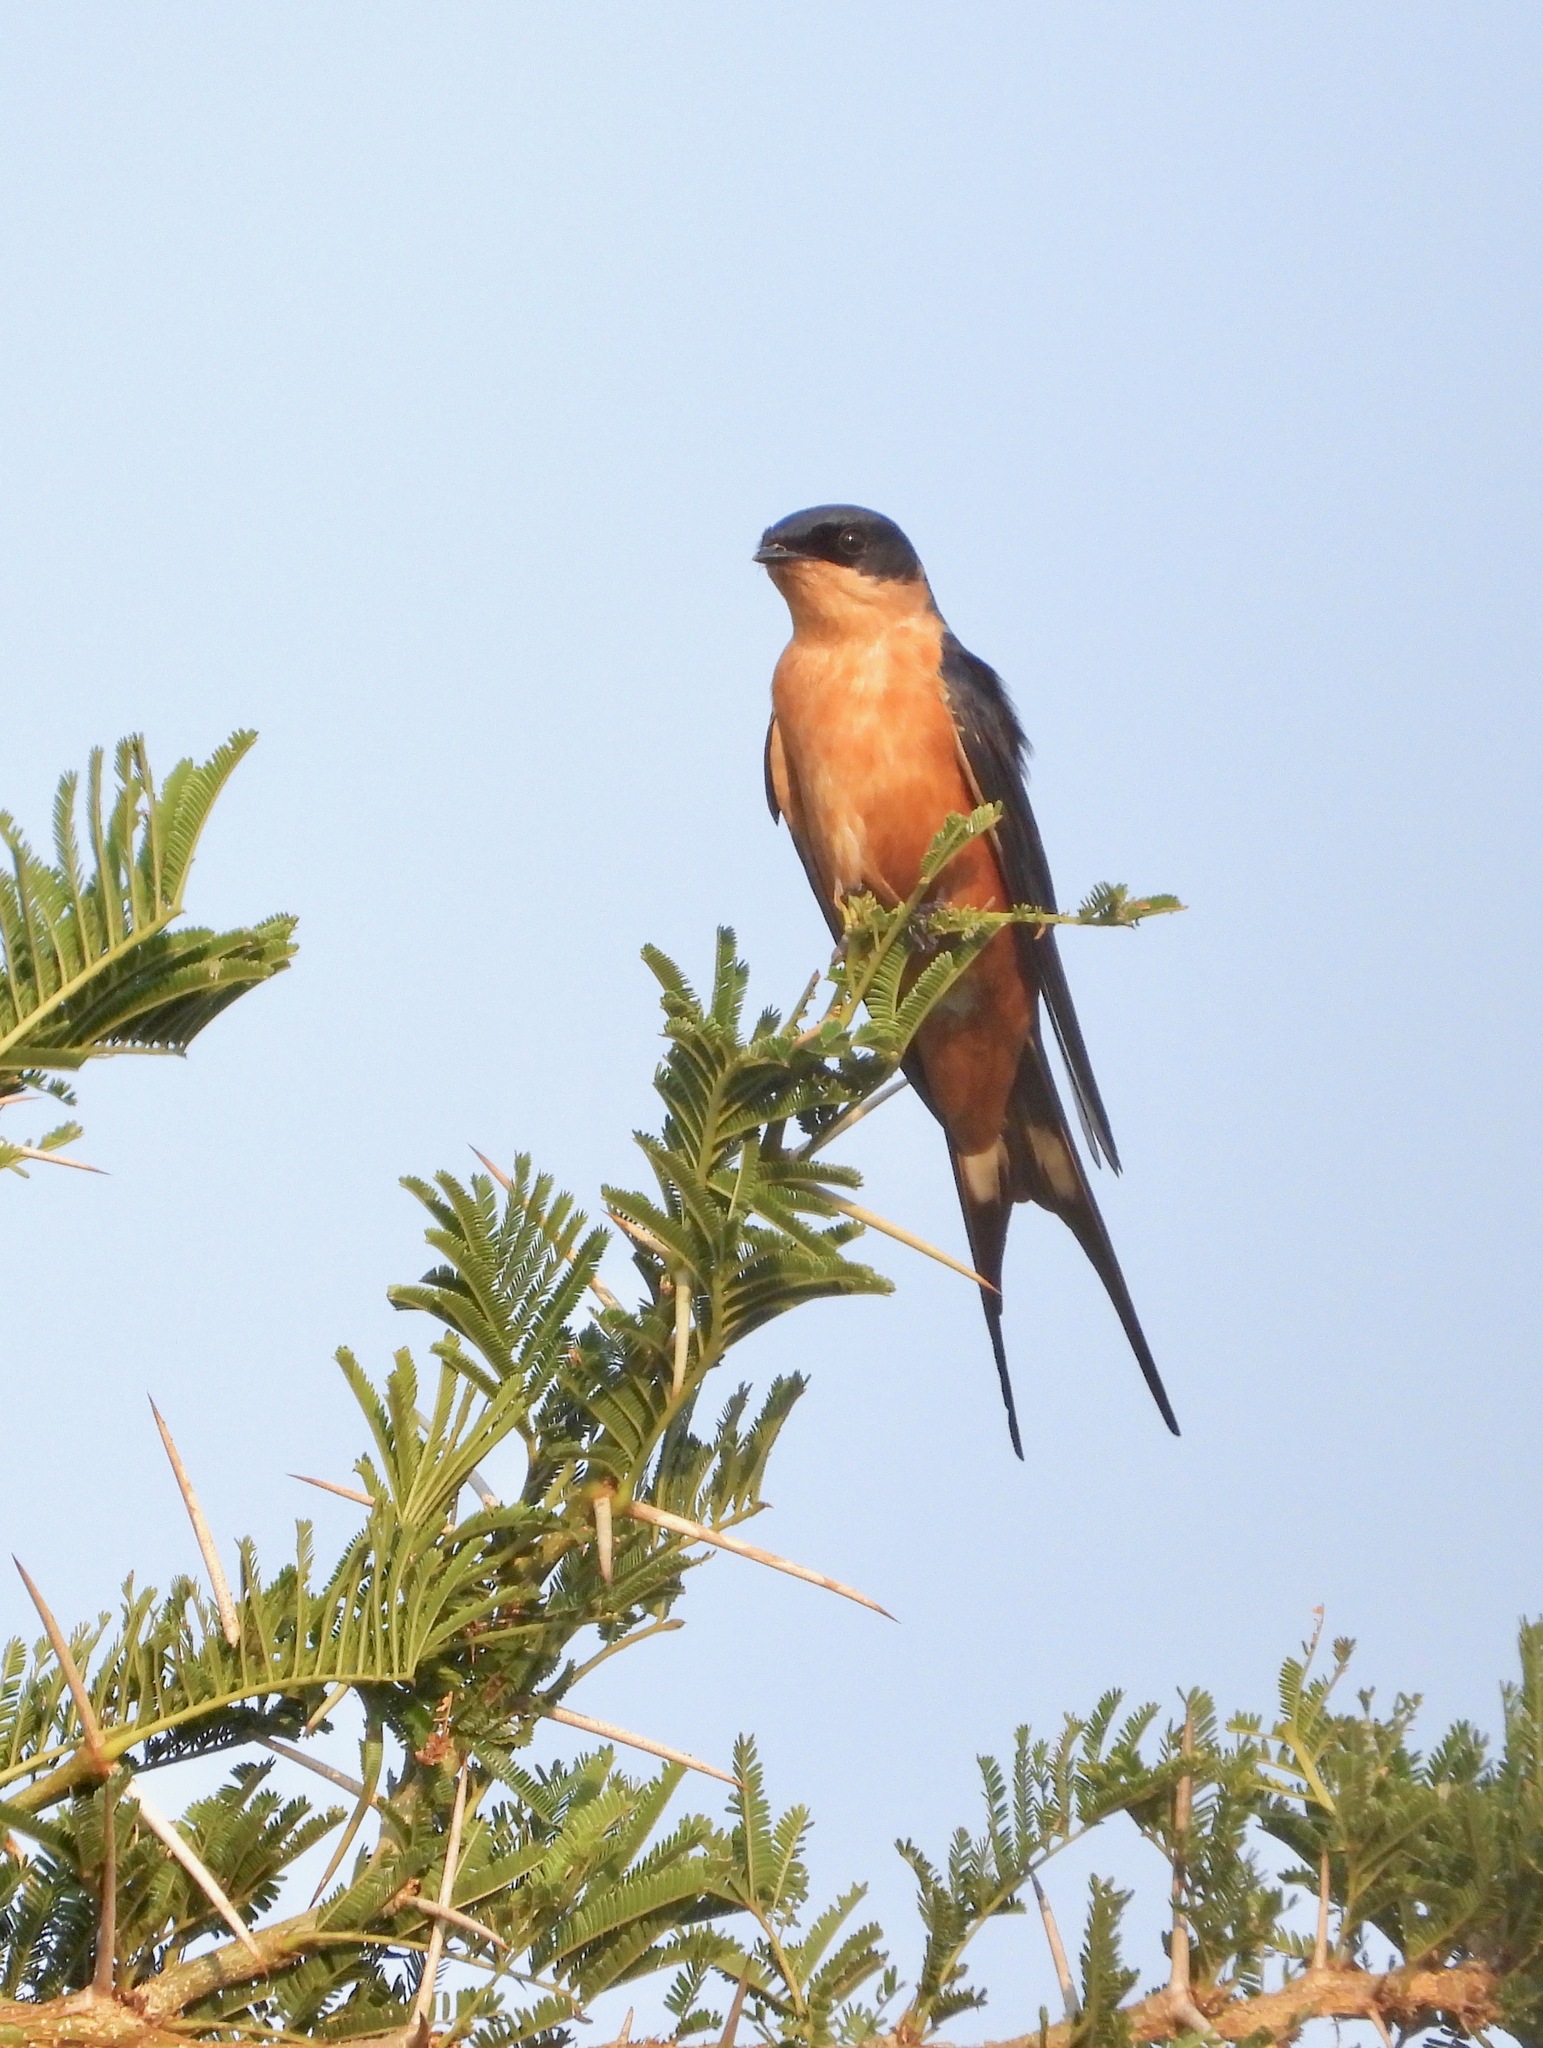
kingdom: Animalia
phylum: Chordata
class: Aves
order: Passeriformes
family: Hirundinidae
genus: Cecropis
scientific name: Cecropis semirufa
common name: Red-breasted swallow
